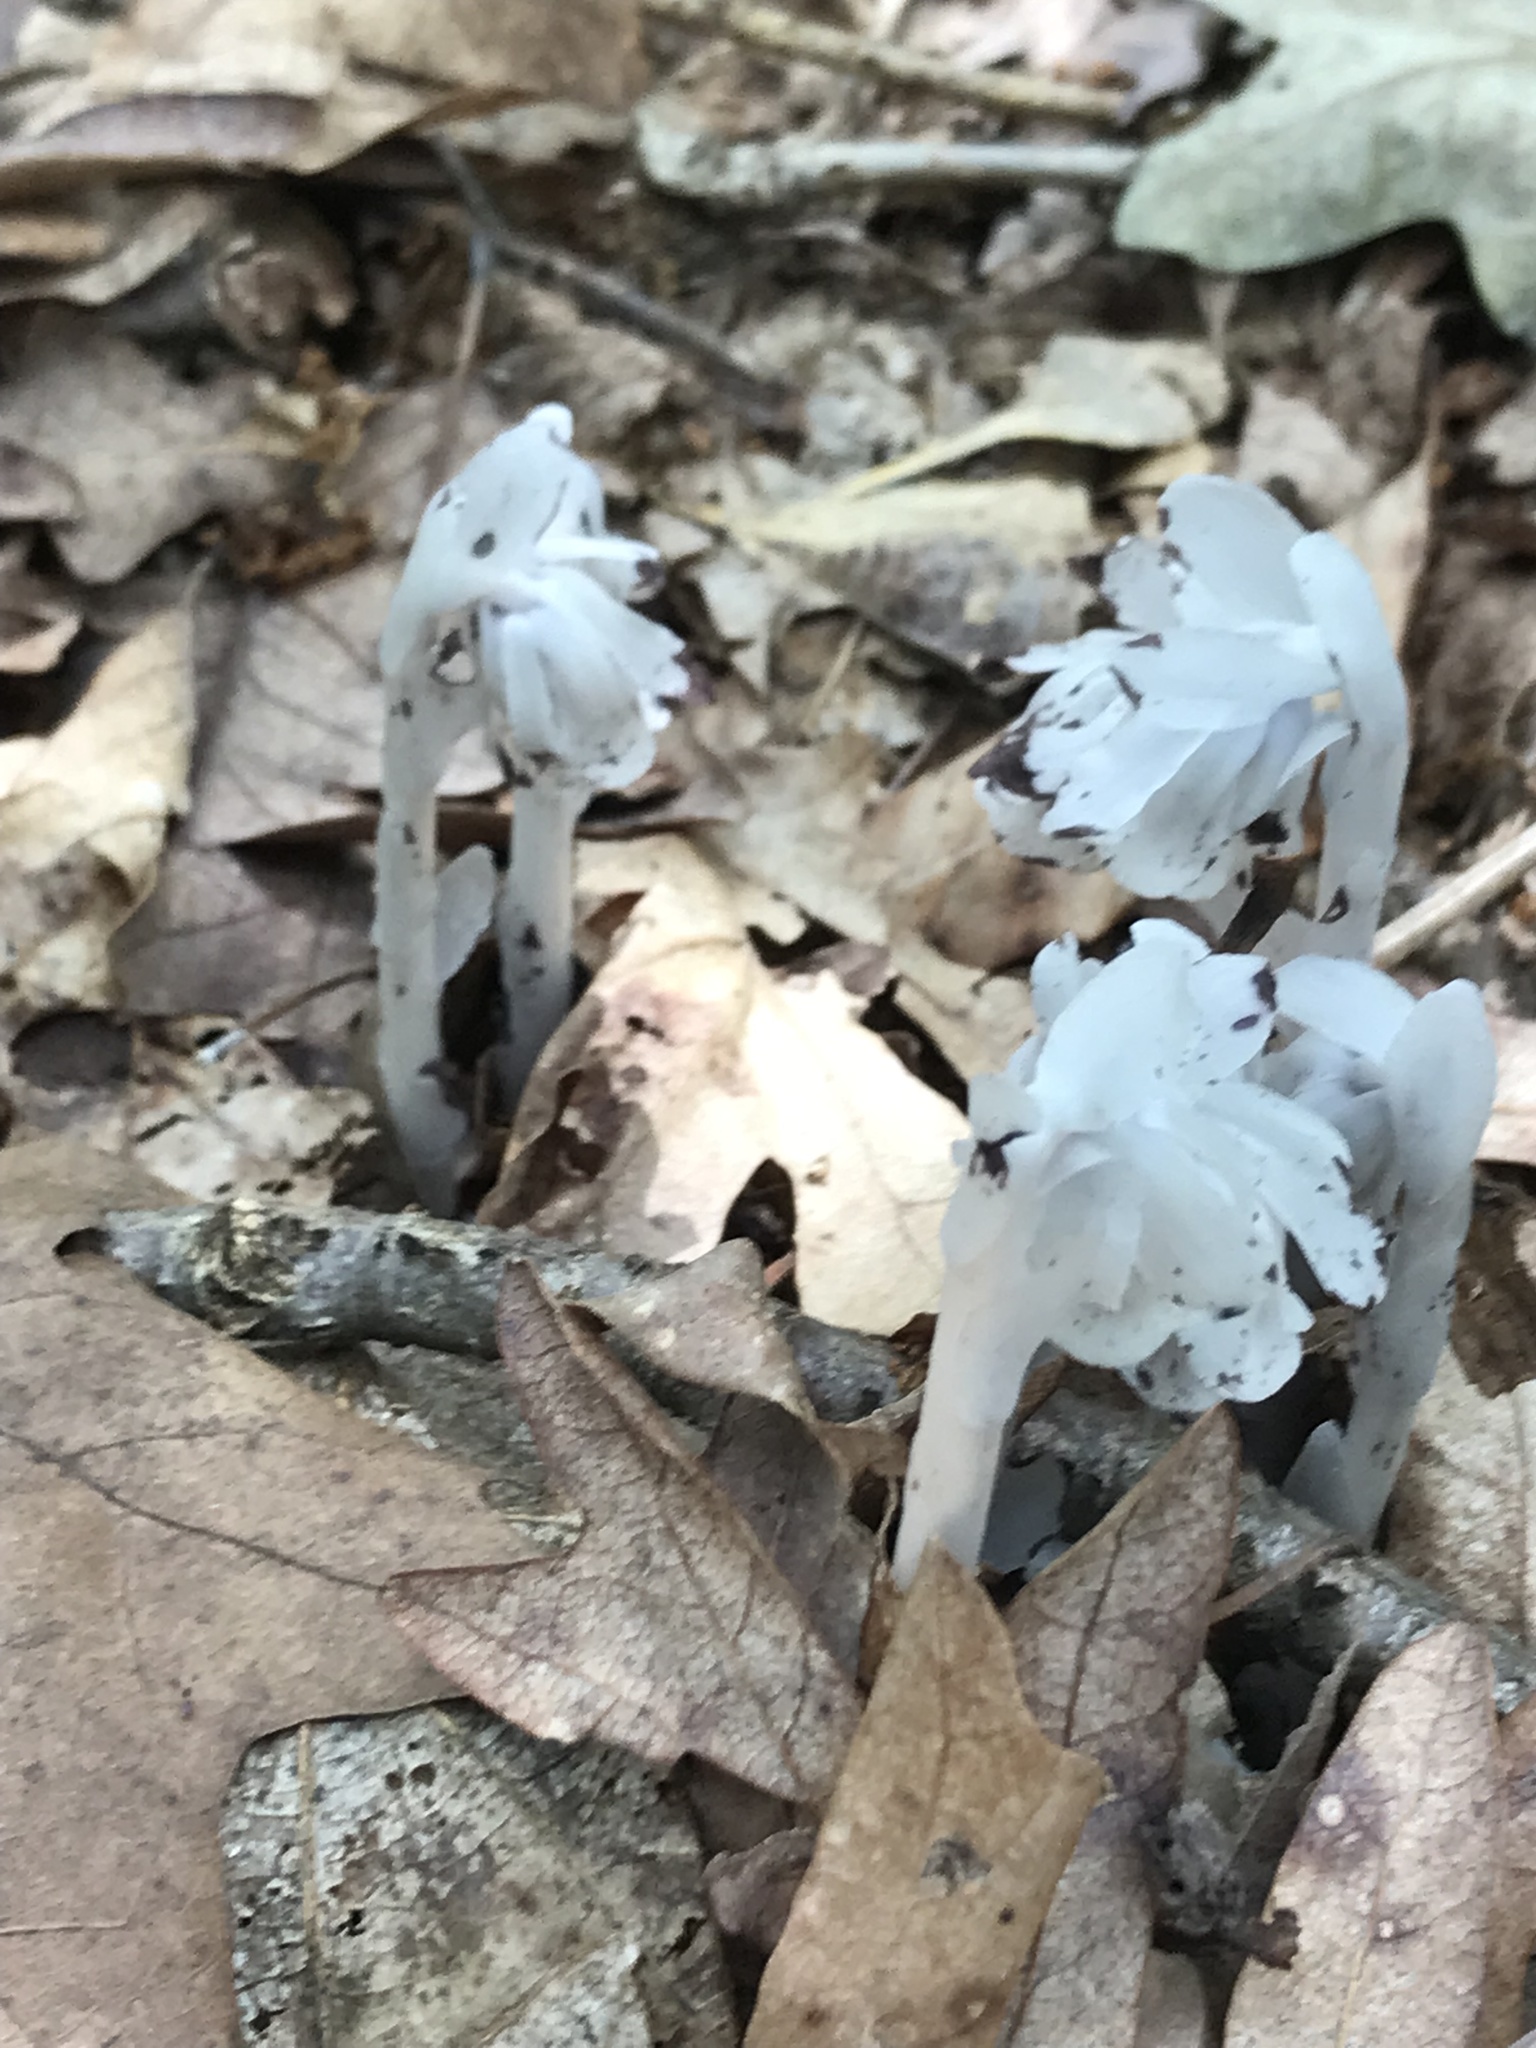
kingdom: Plantae
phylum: Tracheophyta
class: Magnoliopsida
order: Ericales
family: Ericaceae
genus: Monotropa
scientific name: Monotropa uniflora
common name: Convulsion root
